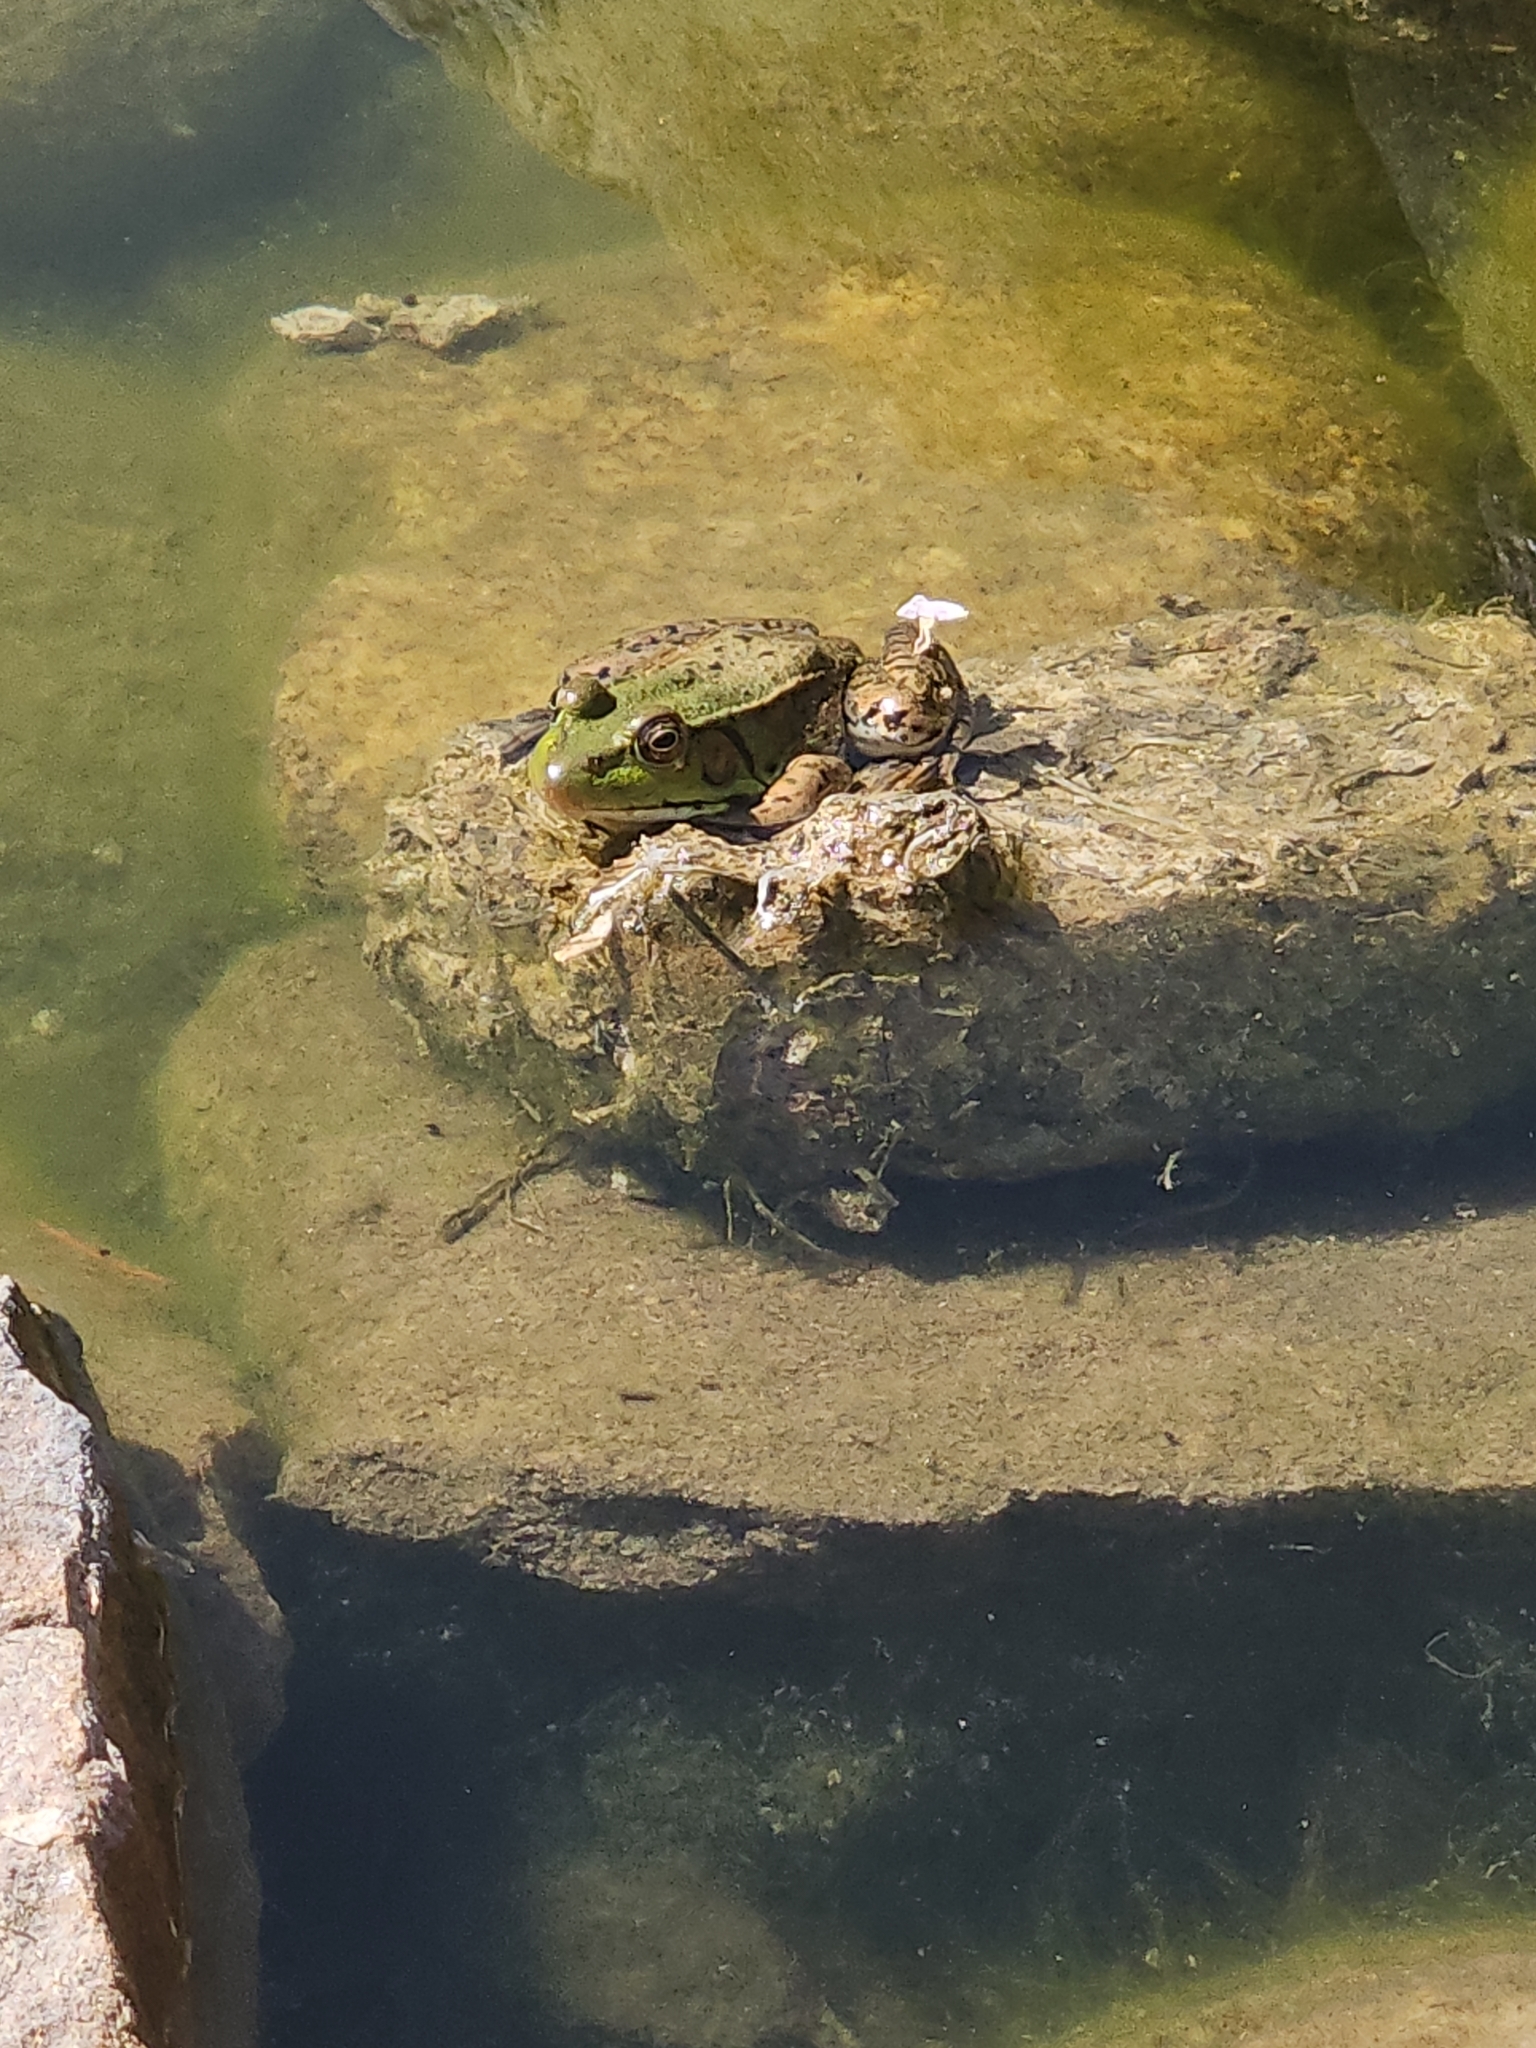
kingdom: Animalia
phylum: Chordata
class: Amphibia
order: Anura
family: Ranidae
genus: Lithobates
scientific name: Lithobates clamitans
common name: Green frog
